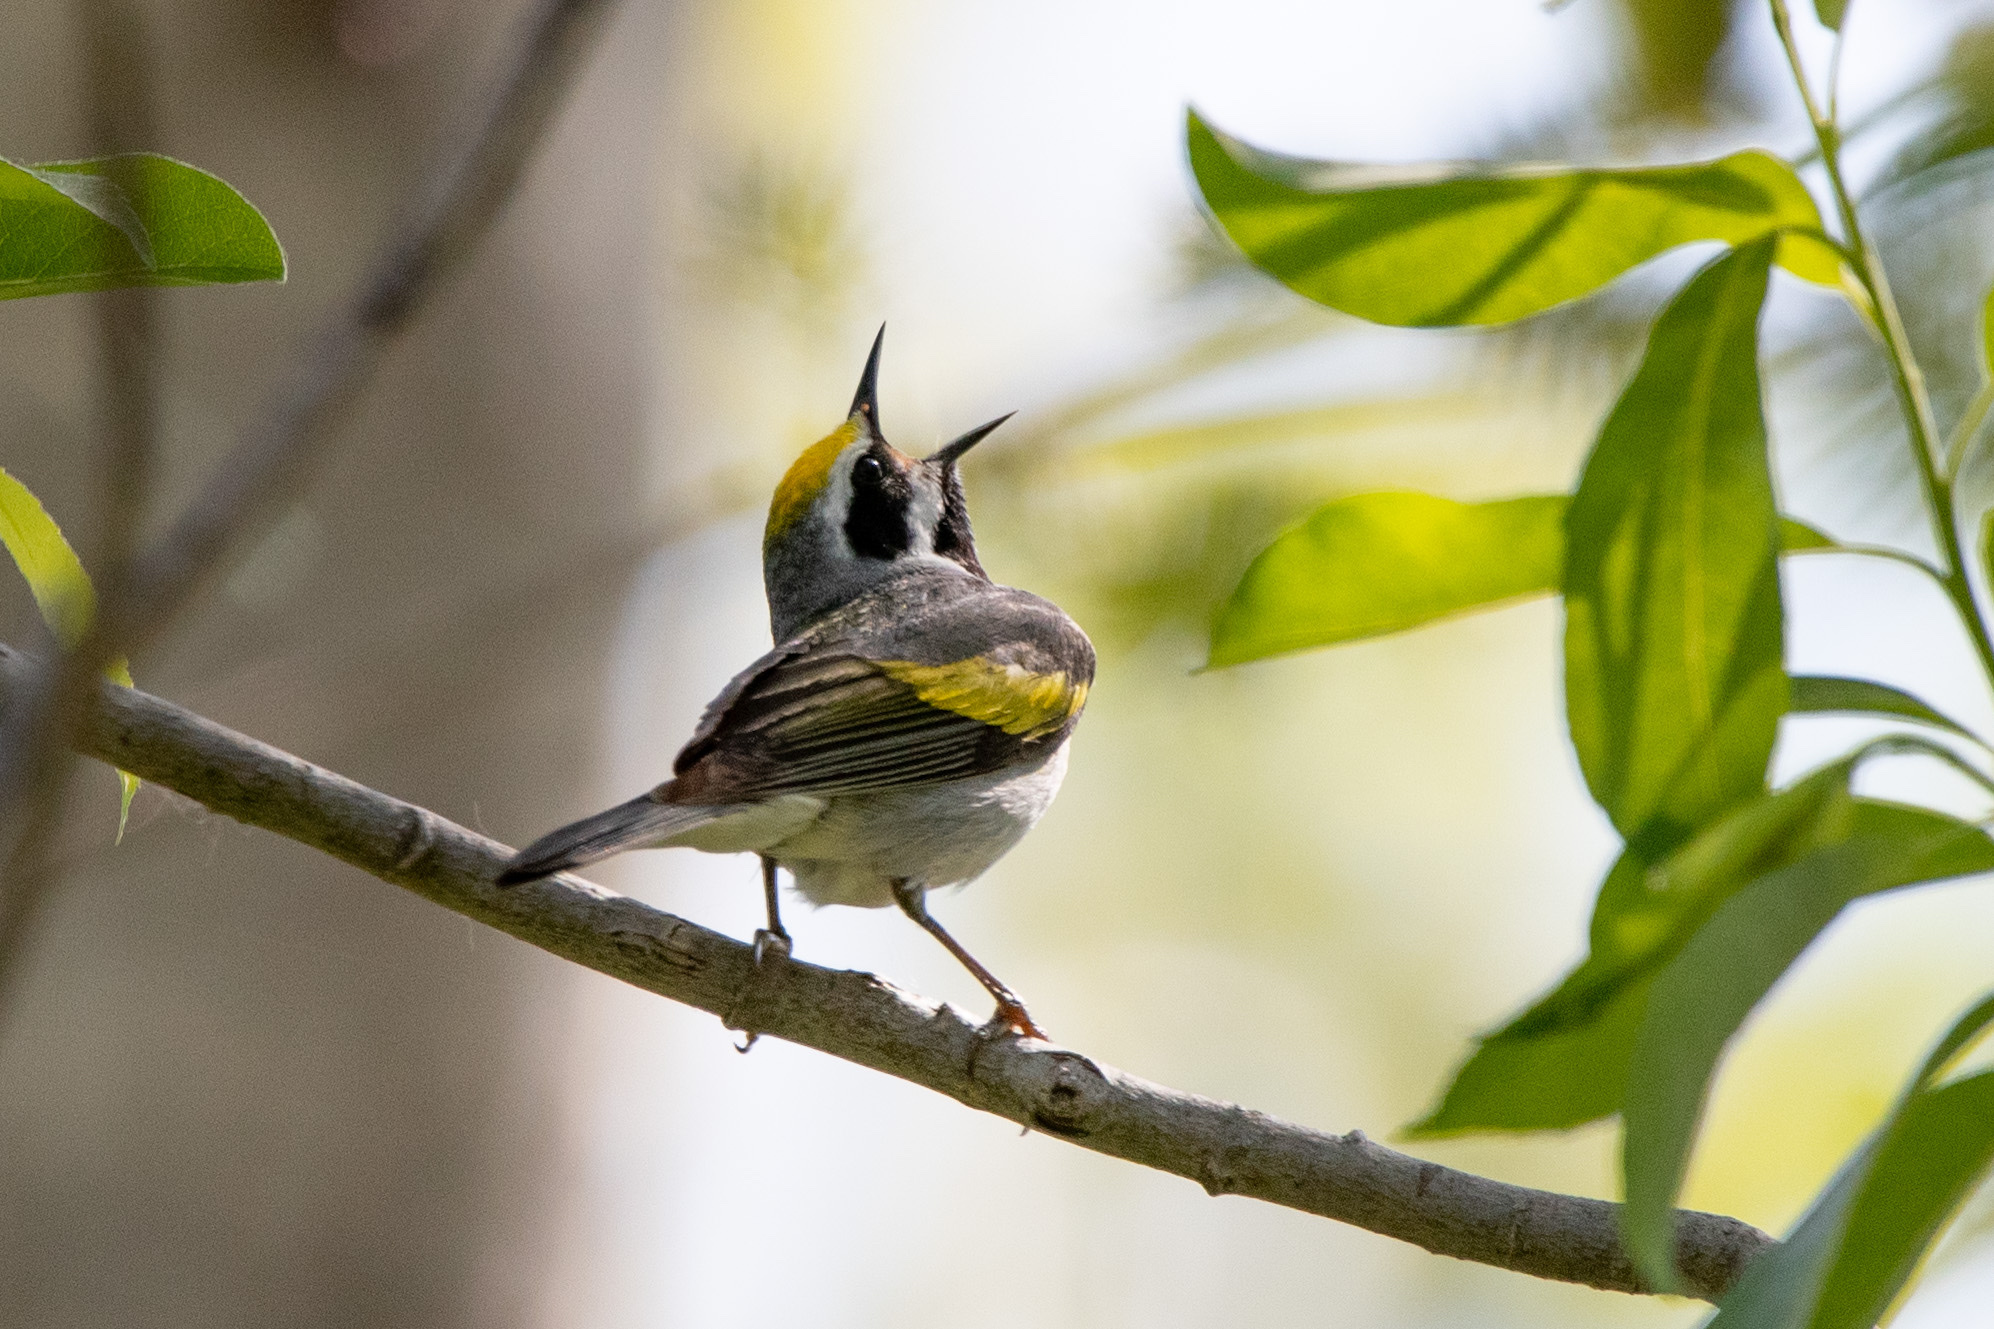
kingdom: Animalia
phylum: Chordata
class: Aves
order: Passeriformes
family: Parulidae
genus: Vermivora
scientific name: Vermivora chrysoptera
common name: Golden-winged warbler
